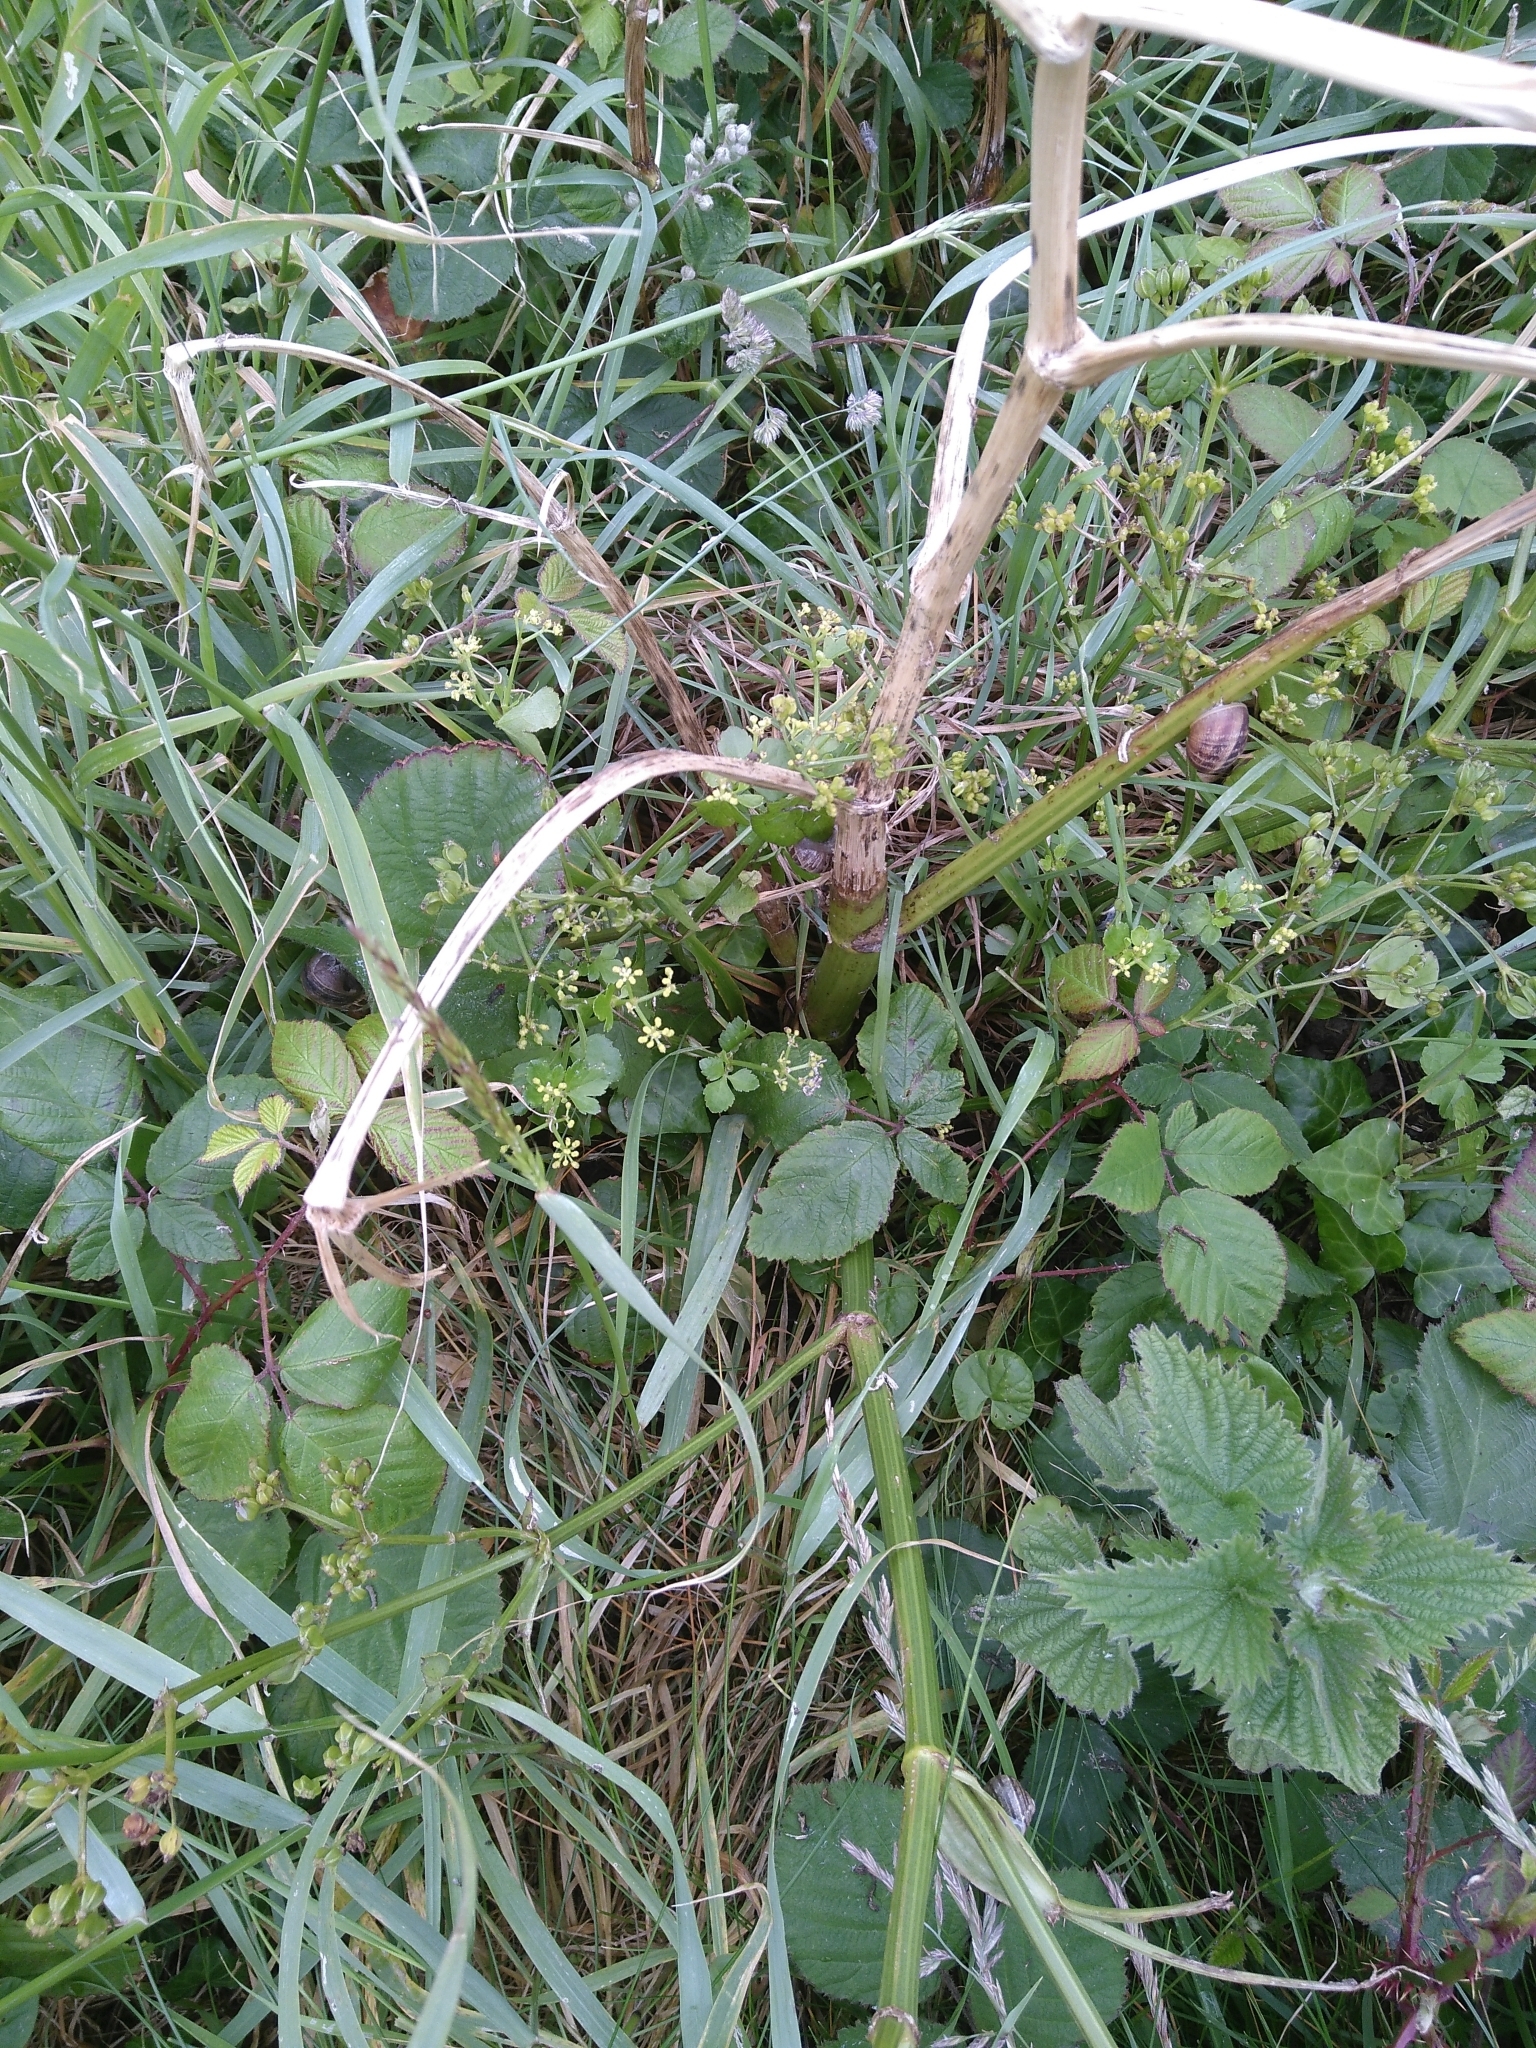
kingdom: Plantae
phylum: Tracheophyta
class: Magnoliopsida
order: Apiales
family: Apiaceae
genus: Smyrnium
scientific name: Smyrnium olusatrum
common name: Alexanders
